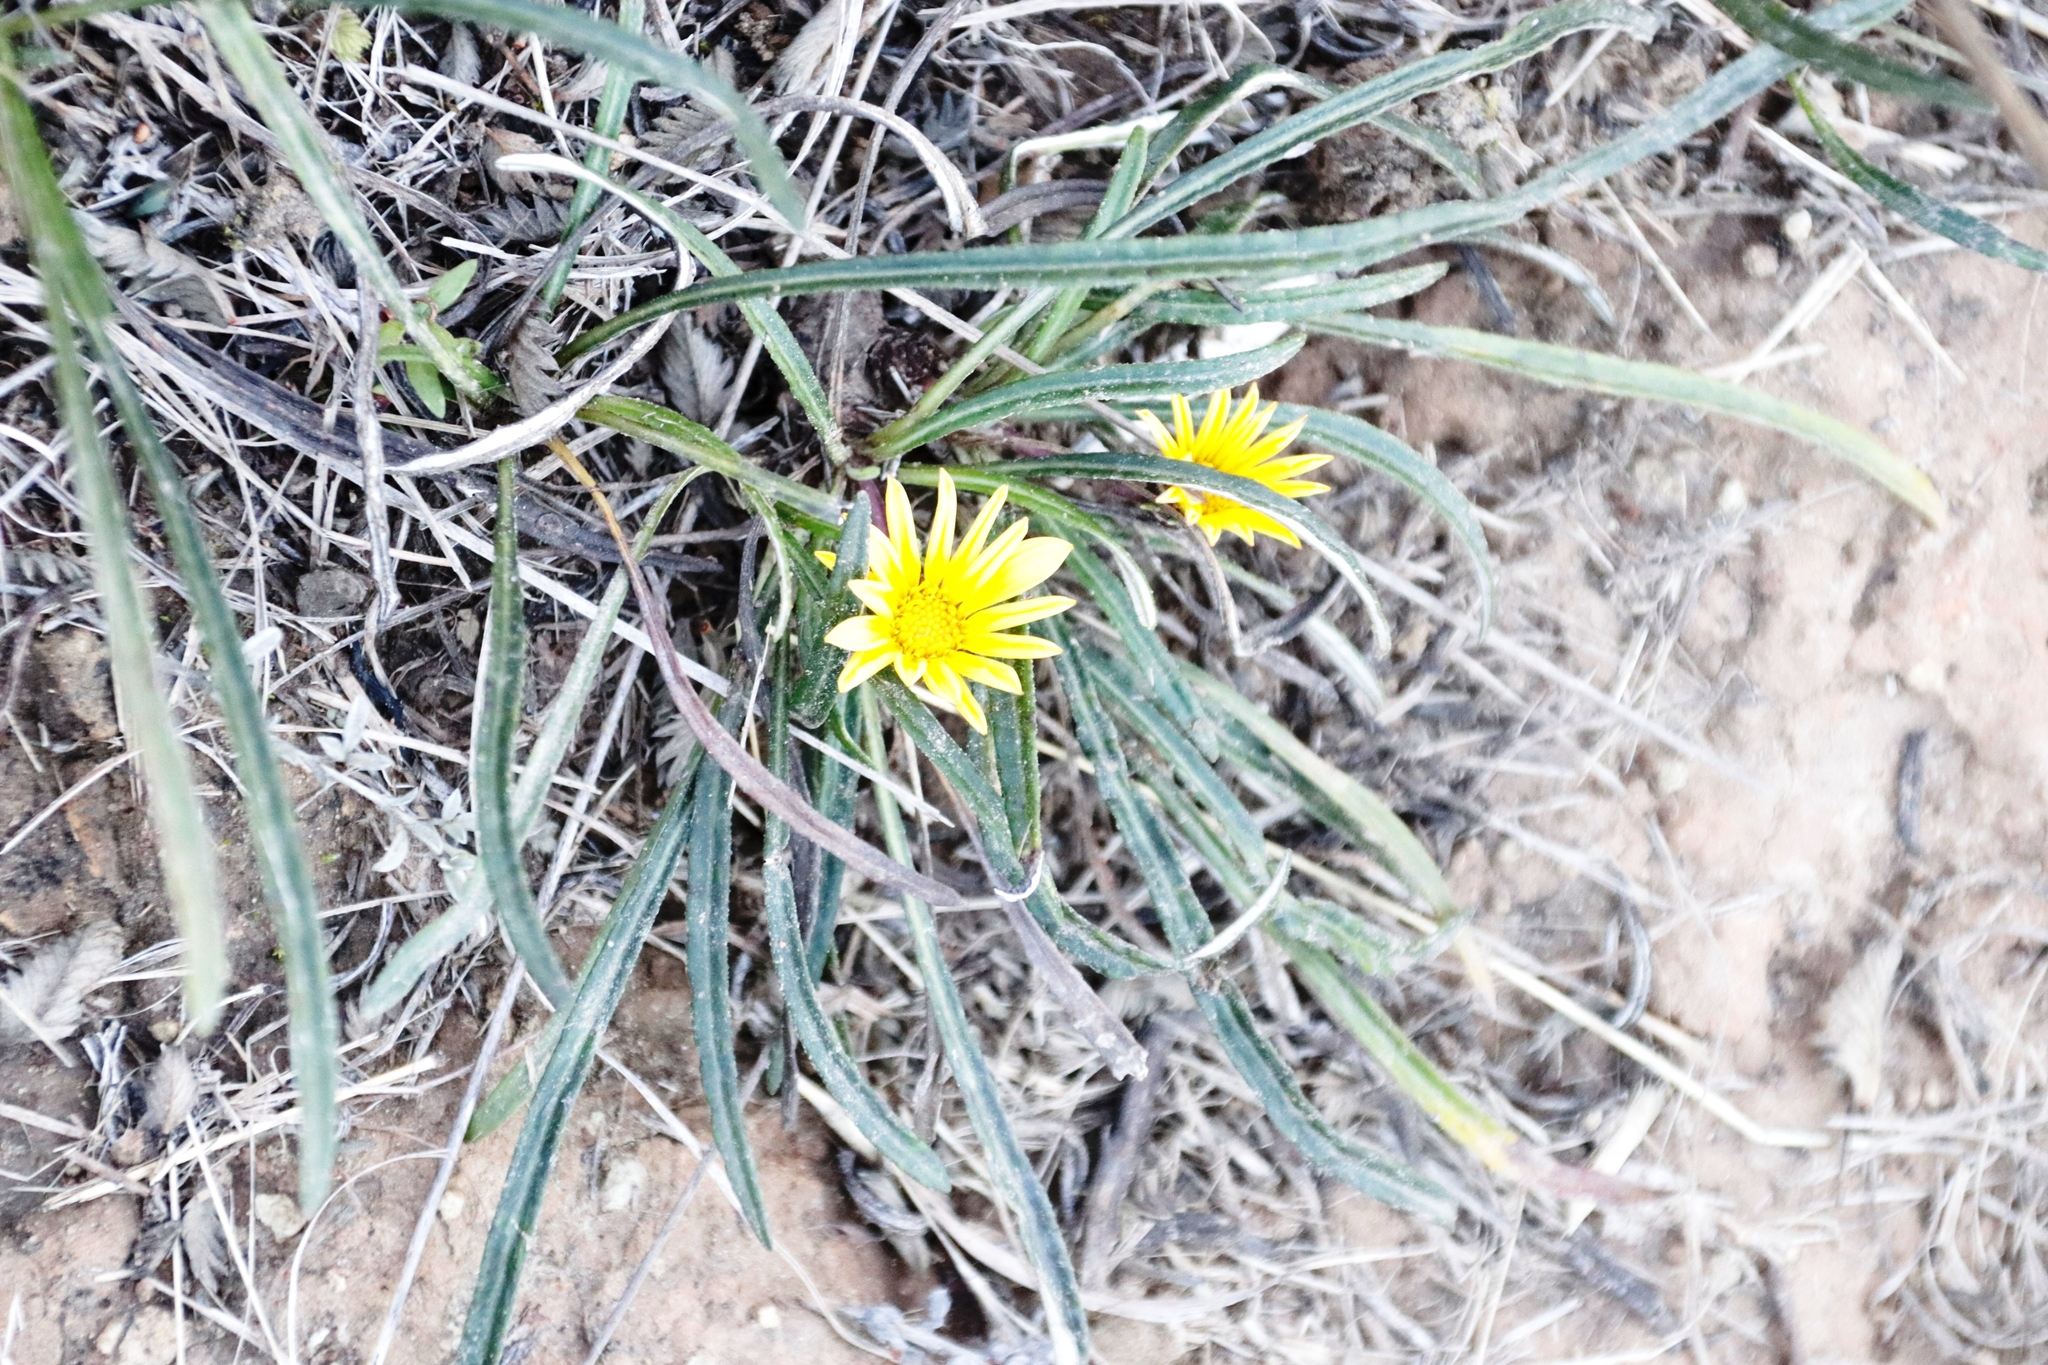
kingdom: Plantae
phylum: Tracheophyta
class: Magnoliopsida
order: Asterales
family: Asteraceae
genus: Gazania
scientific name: Gazania krebsiana
